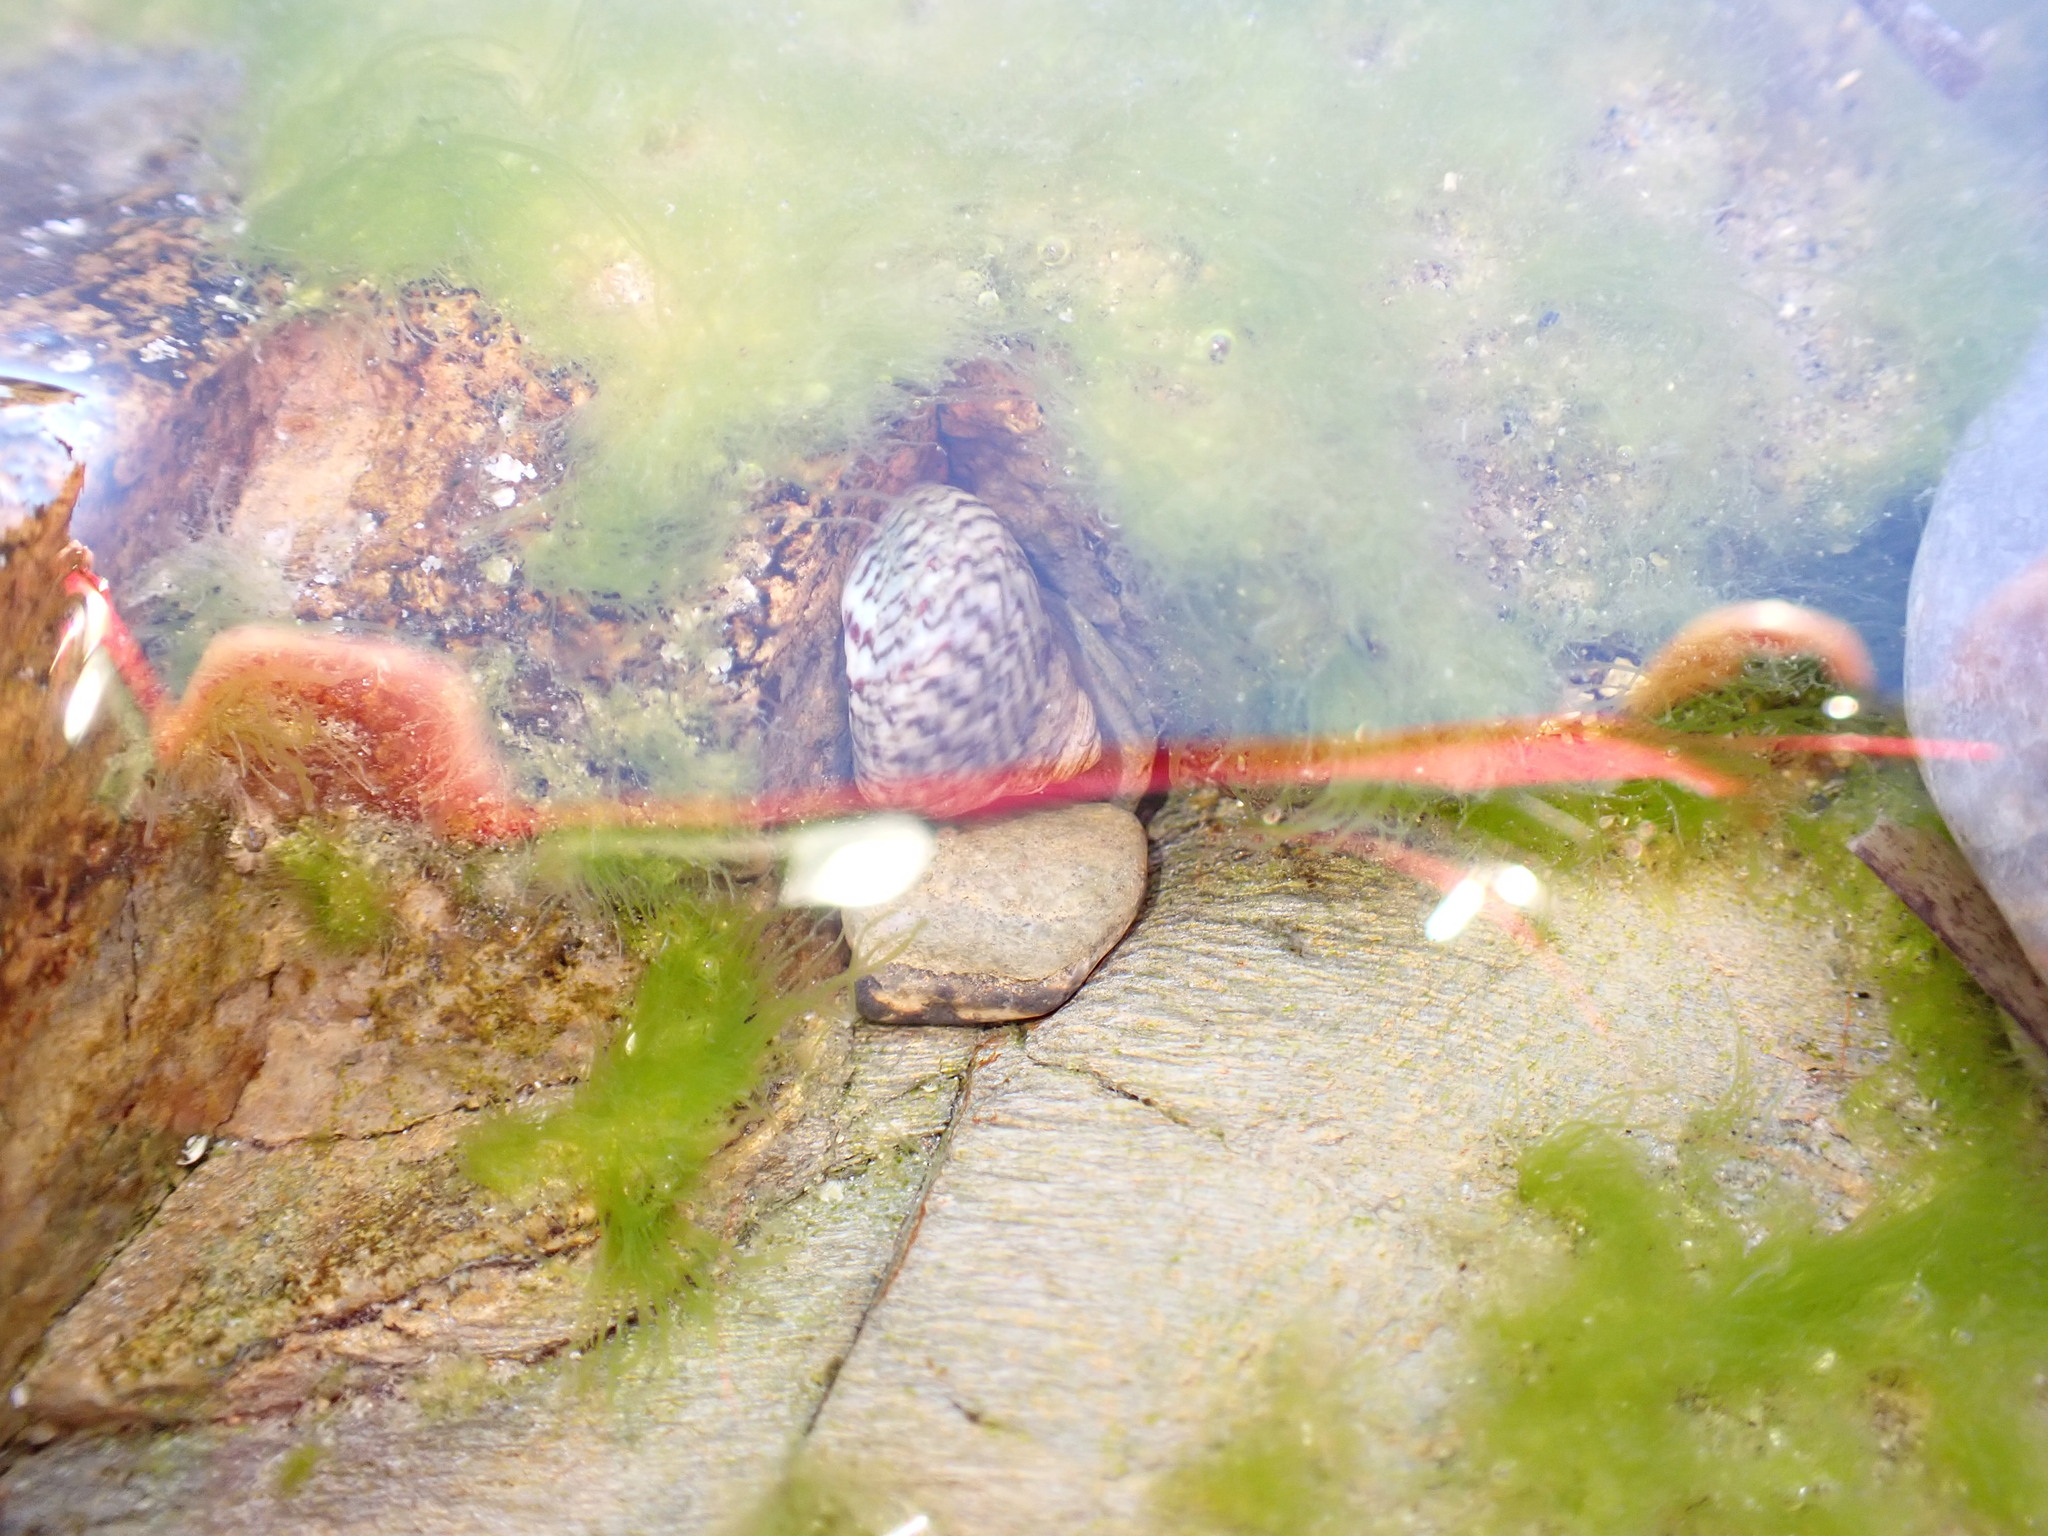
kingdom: Animalia
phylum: Mollusca
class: Gastropoda
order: Trochida
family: Trochidae
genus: Phorcus
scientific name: Phorcus turbinatus
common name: Turbinate monodont
